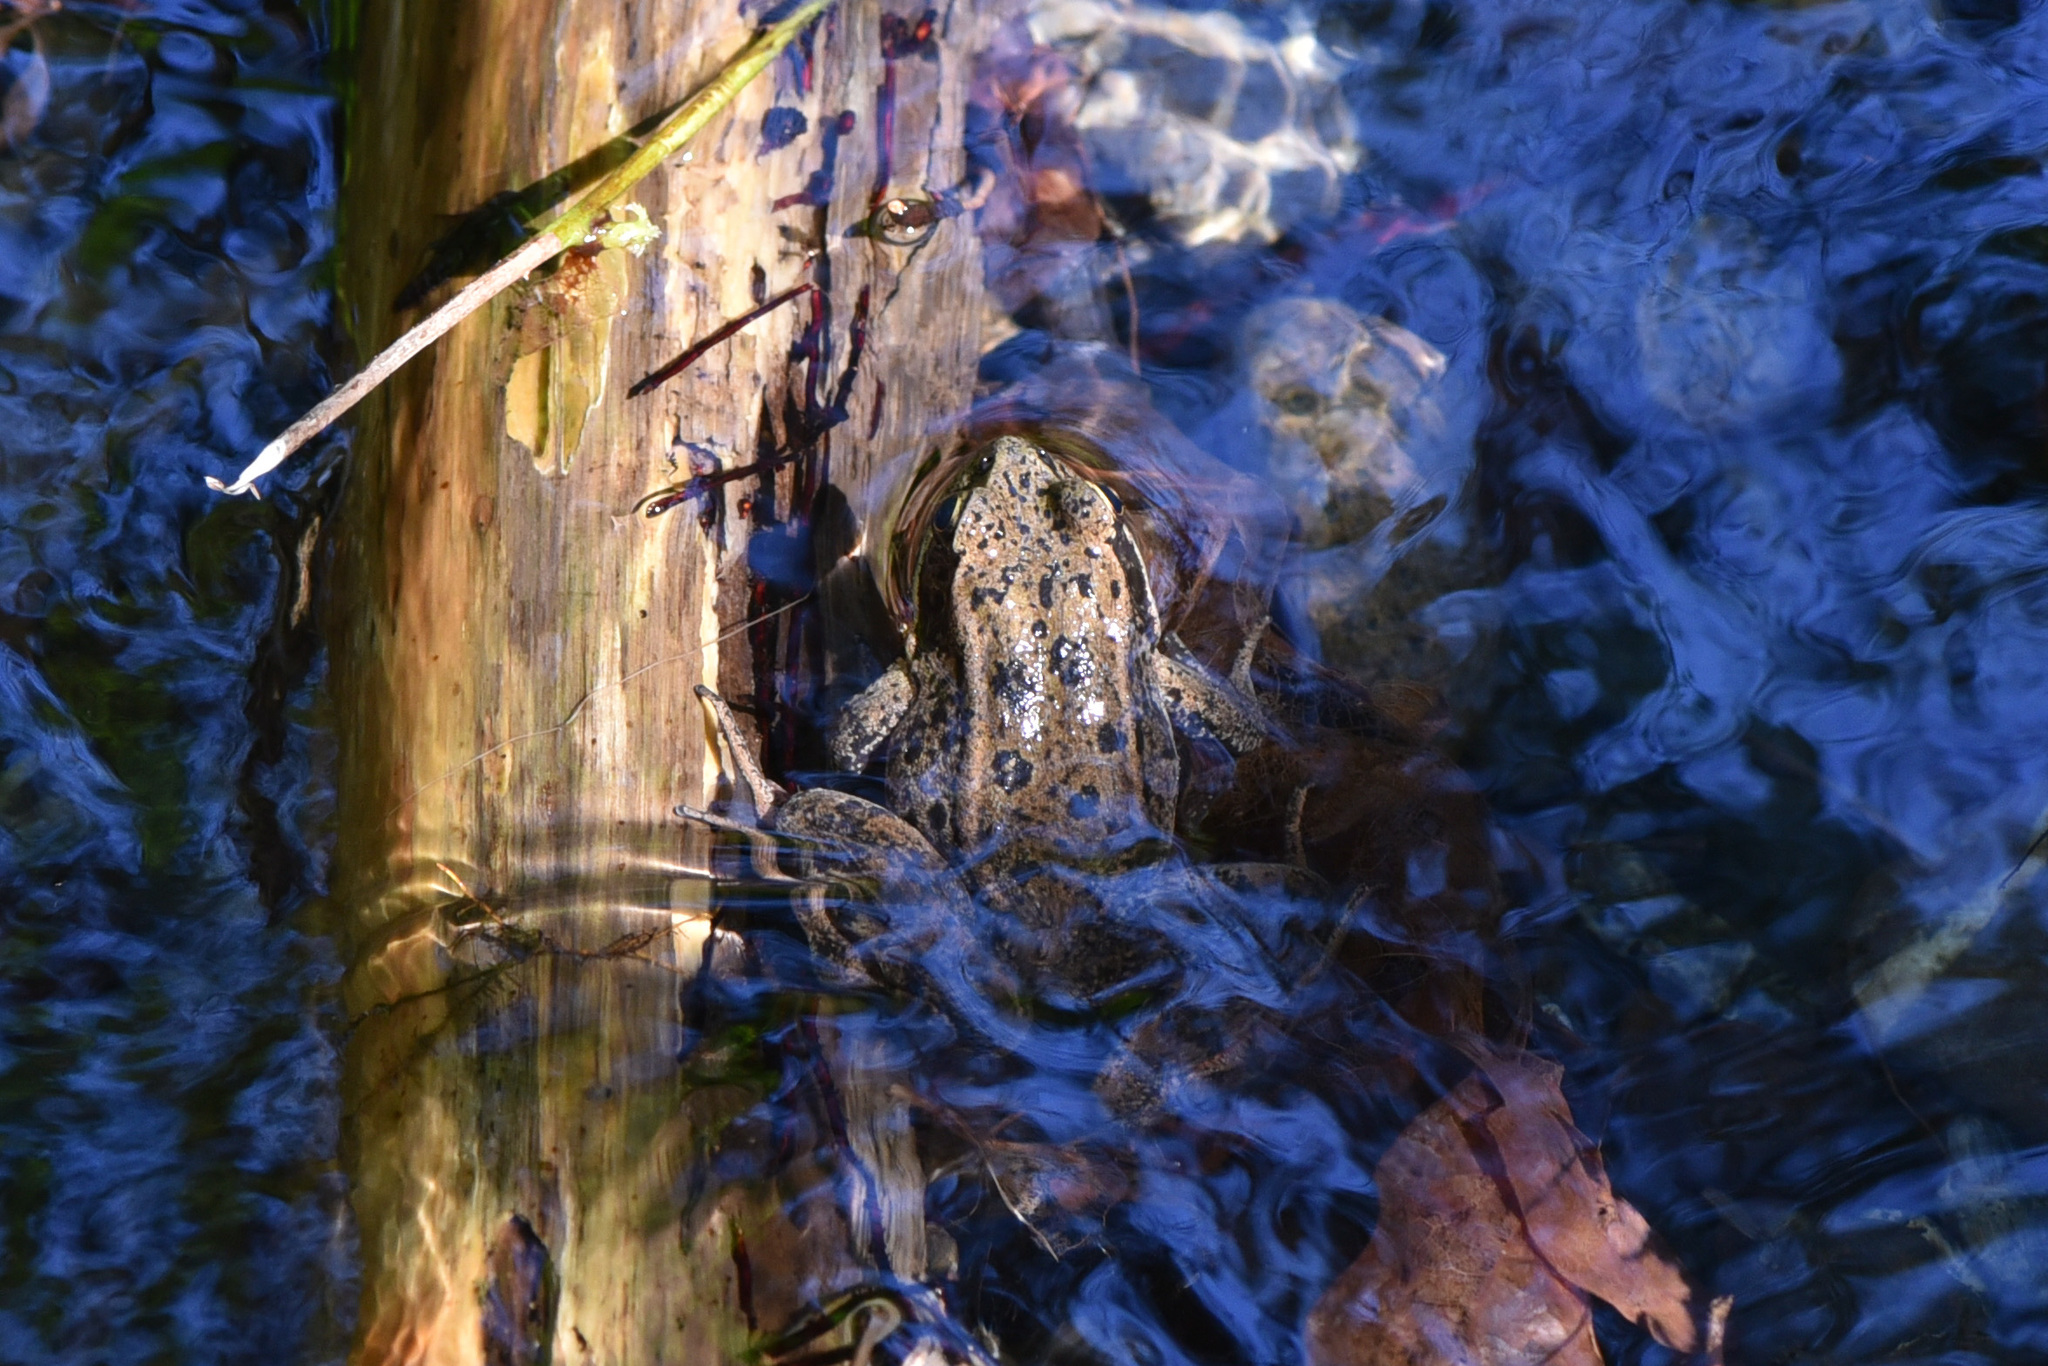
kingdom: Animalia
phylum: Chordata
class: Amphibia
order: Anura
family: Ranidae
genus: Rana
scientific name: Rana aurora
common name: Red-legged frog
